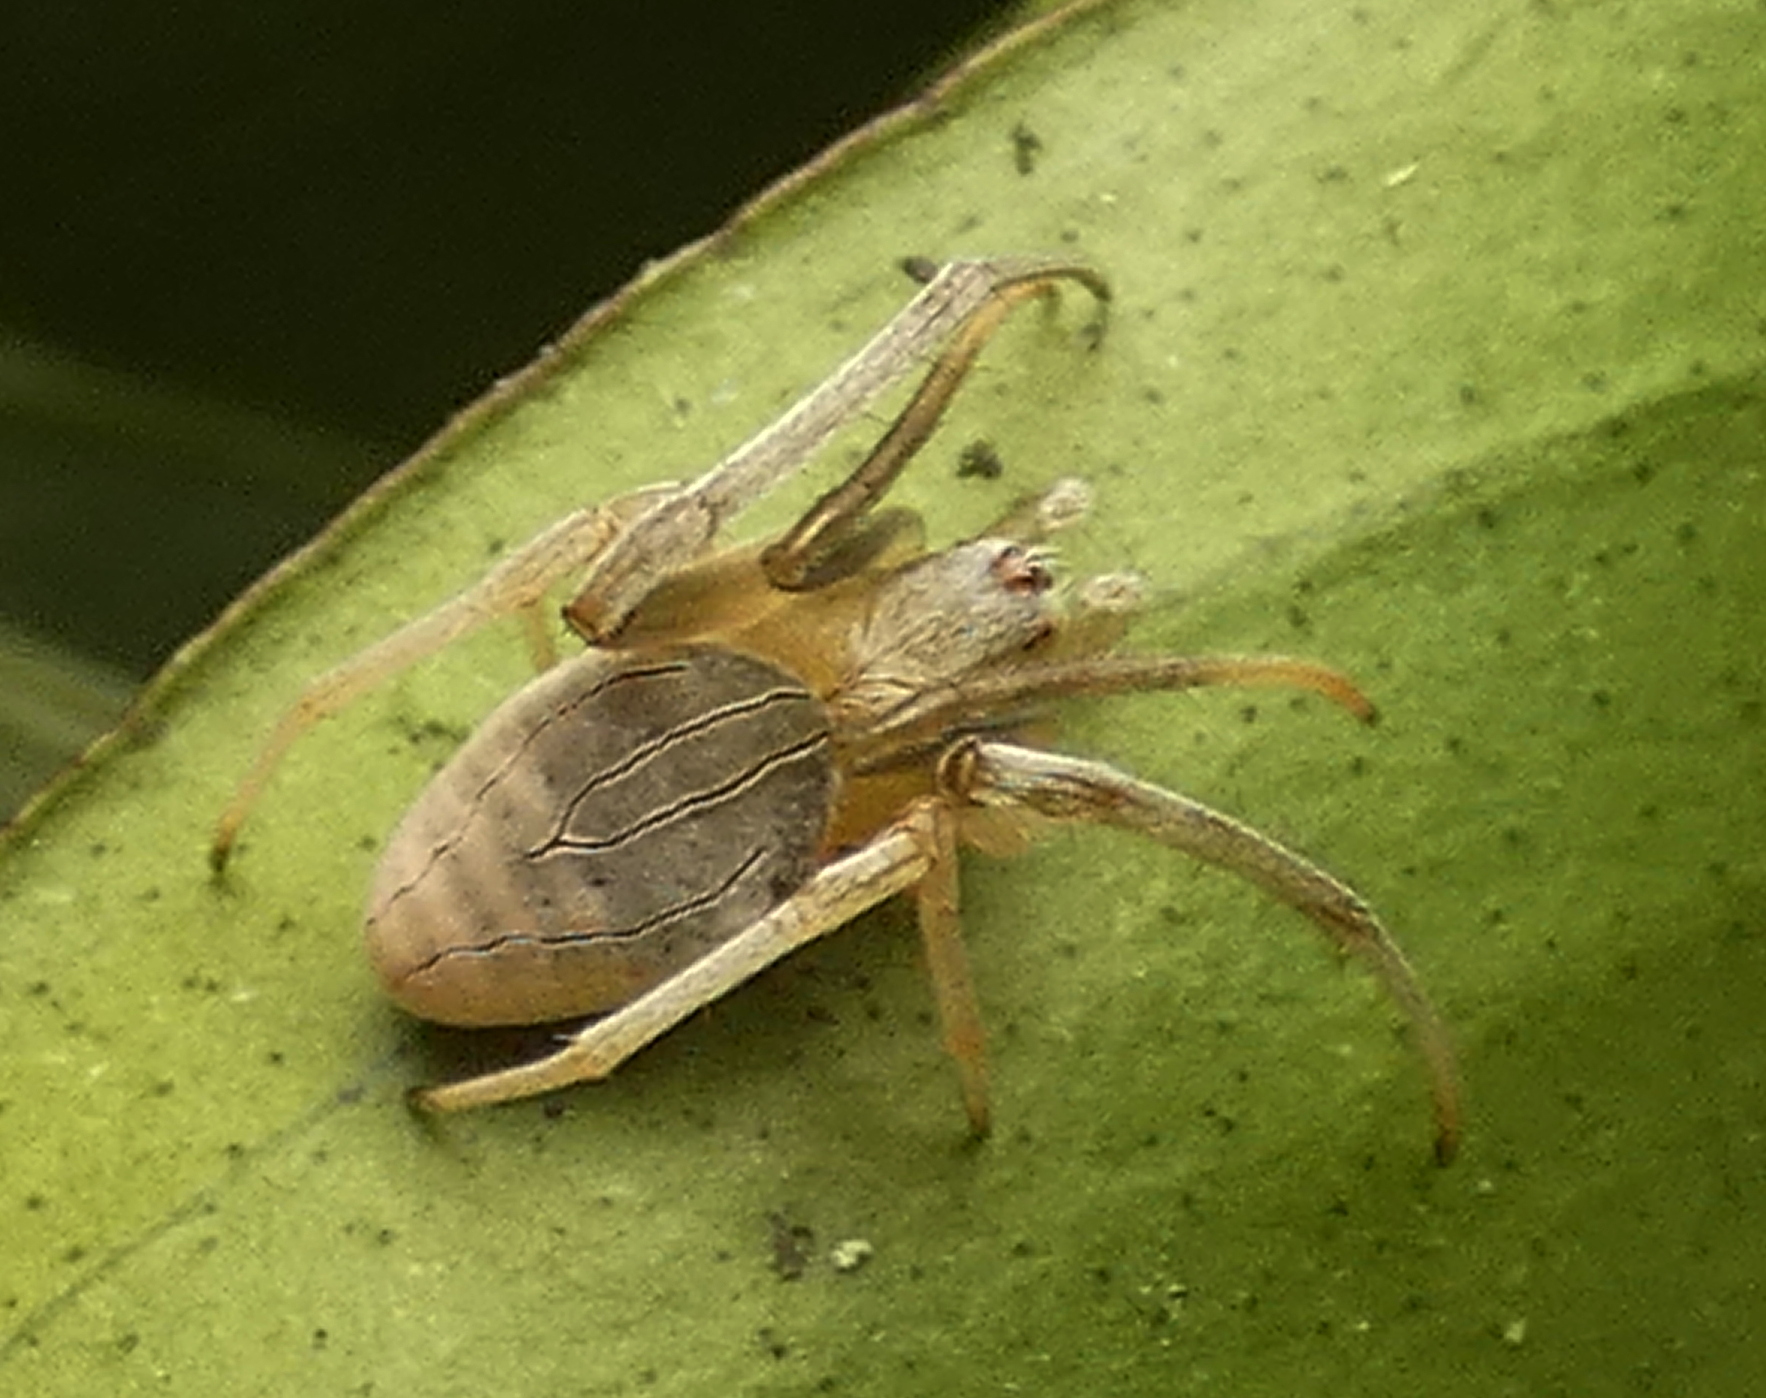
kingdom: Animalia
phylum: Arthropoda
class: Arachnida
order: Araneae
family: Araneidae
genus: Acacesia
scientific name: Acacesia hamata
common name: Orb weavers
